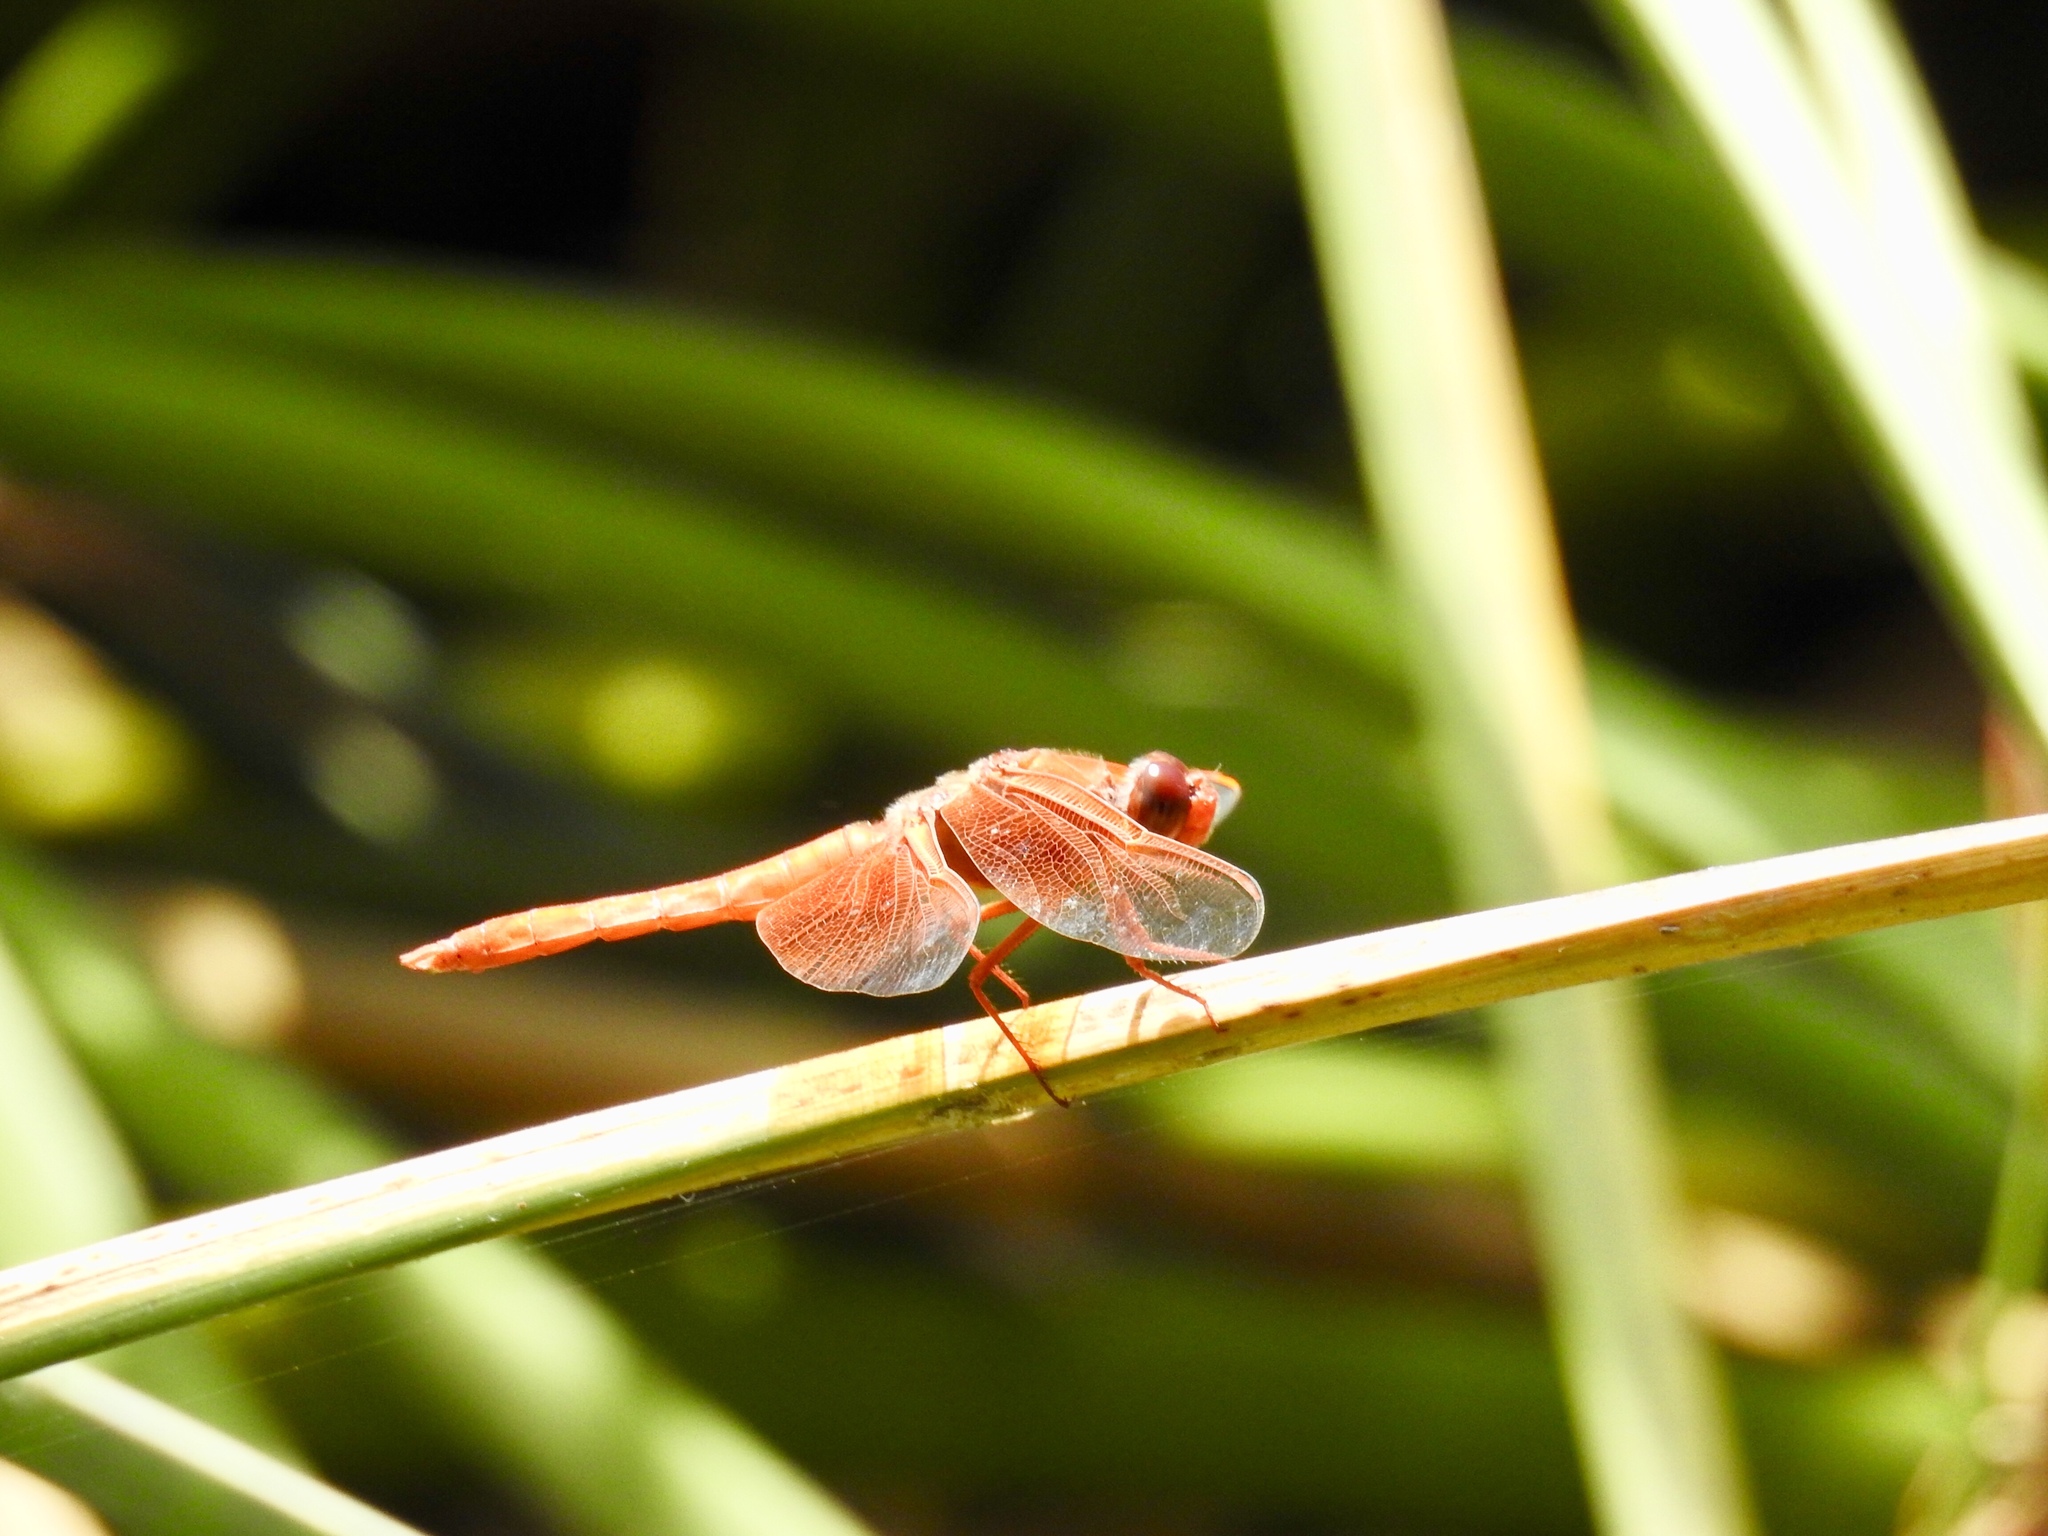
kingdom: Animalia
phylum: Arthropoda
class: Insecta
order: Odonata
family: Libellulidae
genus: Libellula
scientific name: Libellula saturata
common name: Flame skimmer
